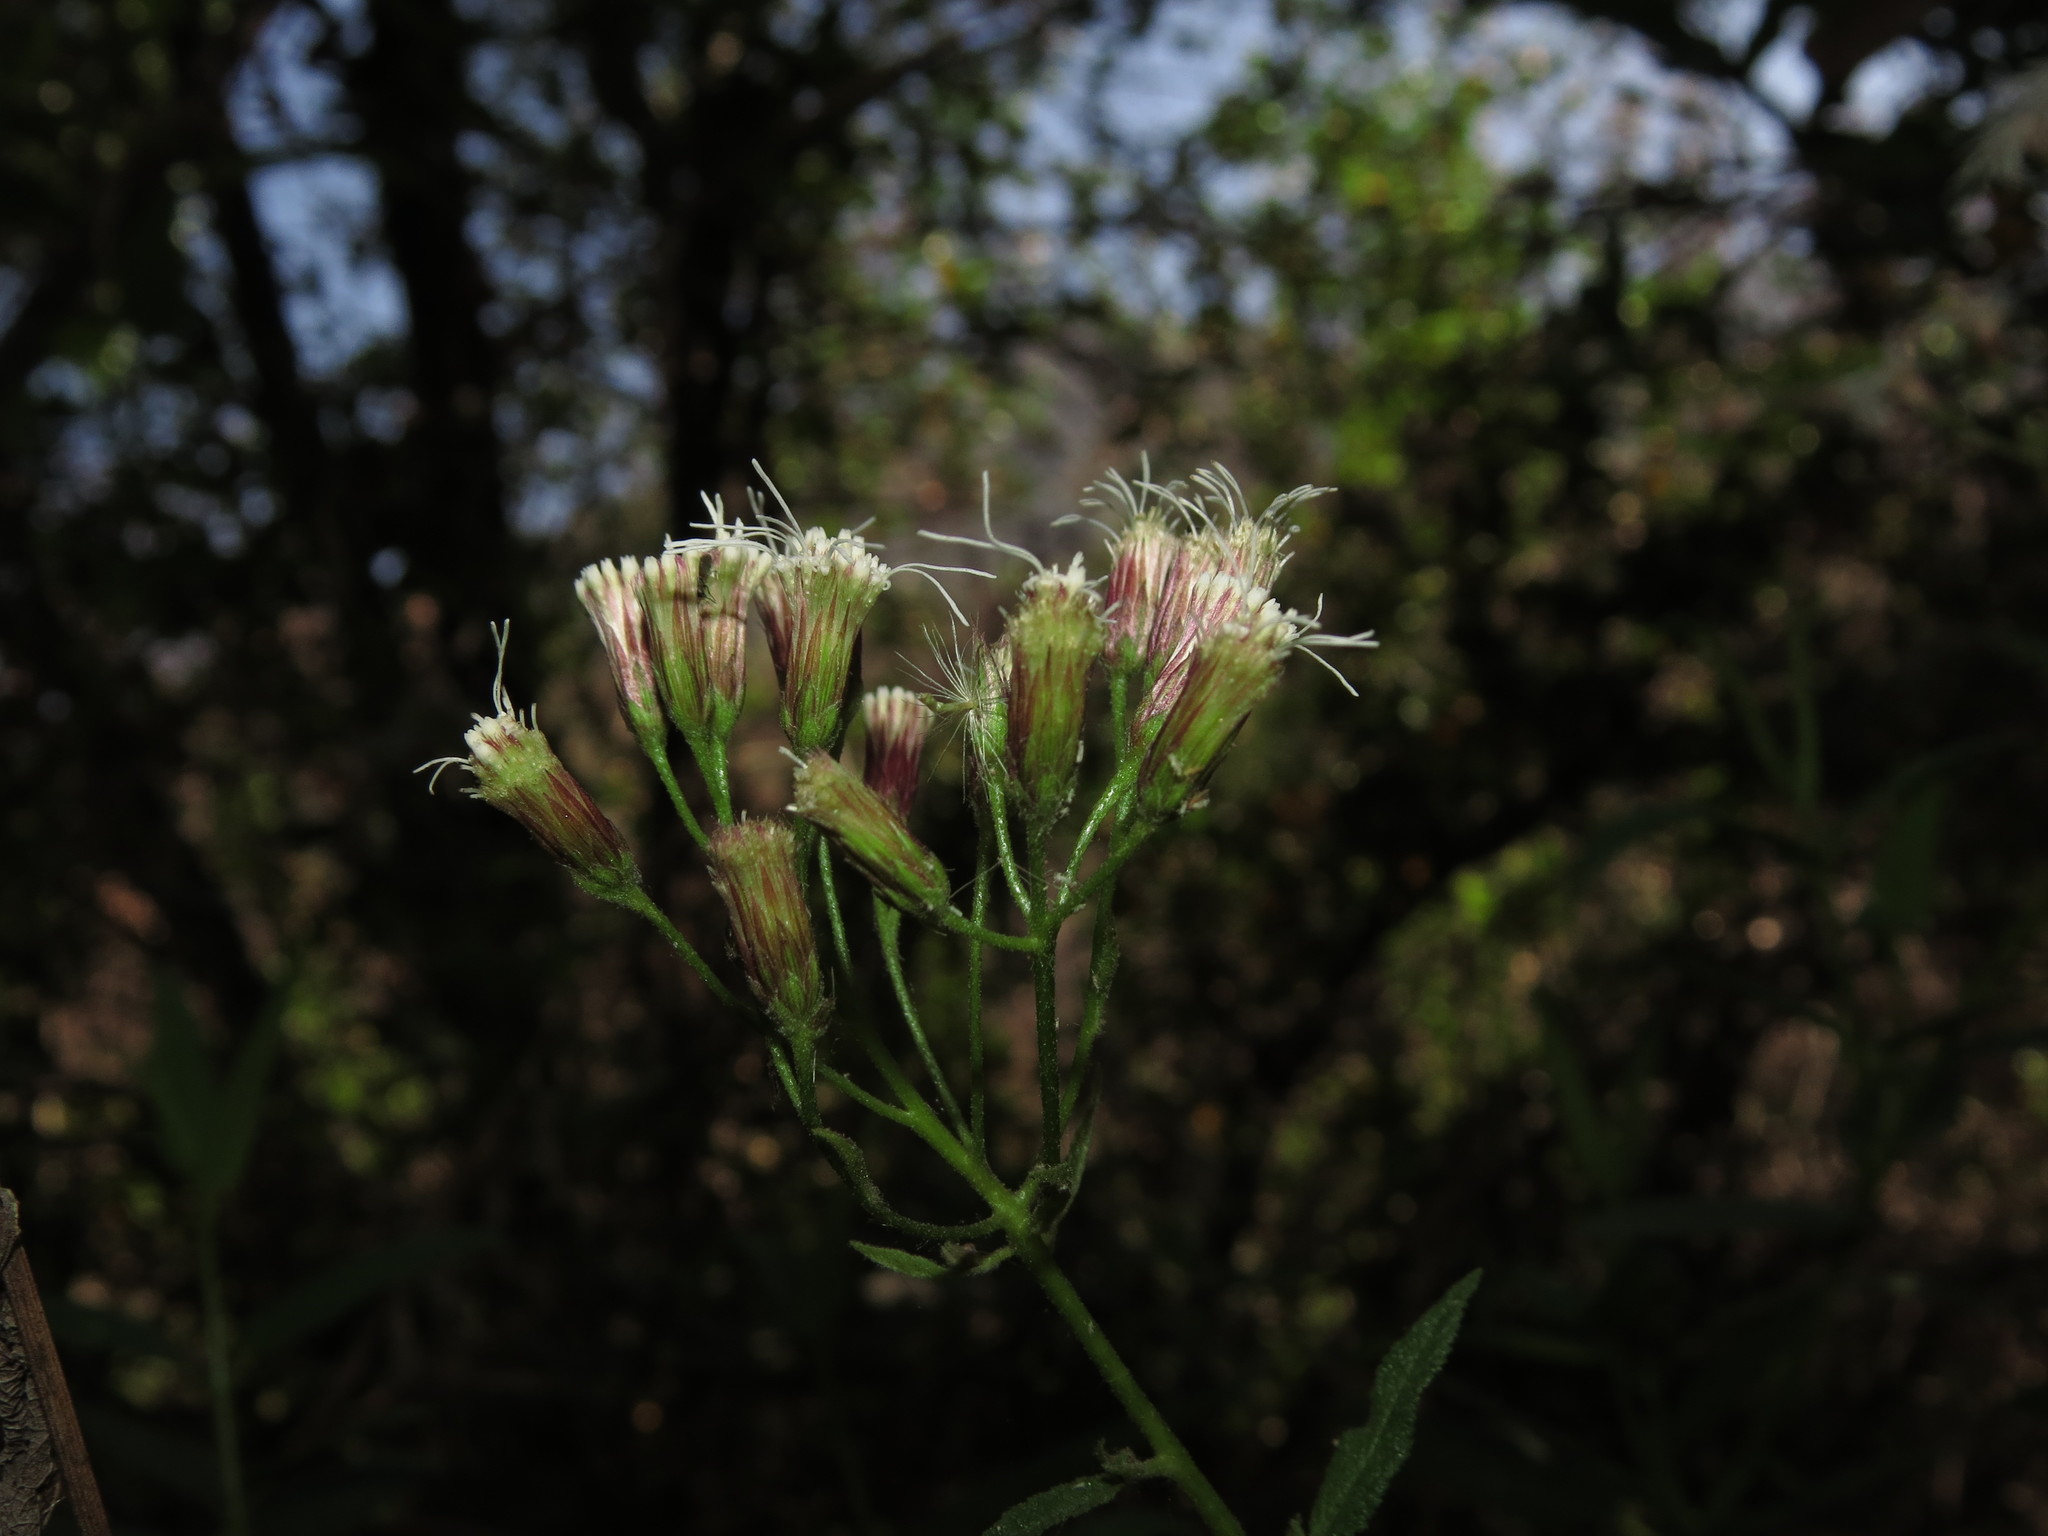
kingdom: Plantae
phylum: Tracheophyta
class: Magnoliopsida
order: Asterales
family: Asteraceae
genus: Aristeguietia
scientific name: Aristeguietia salvia
